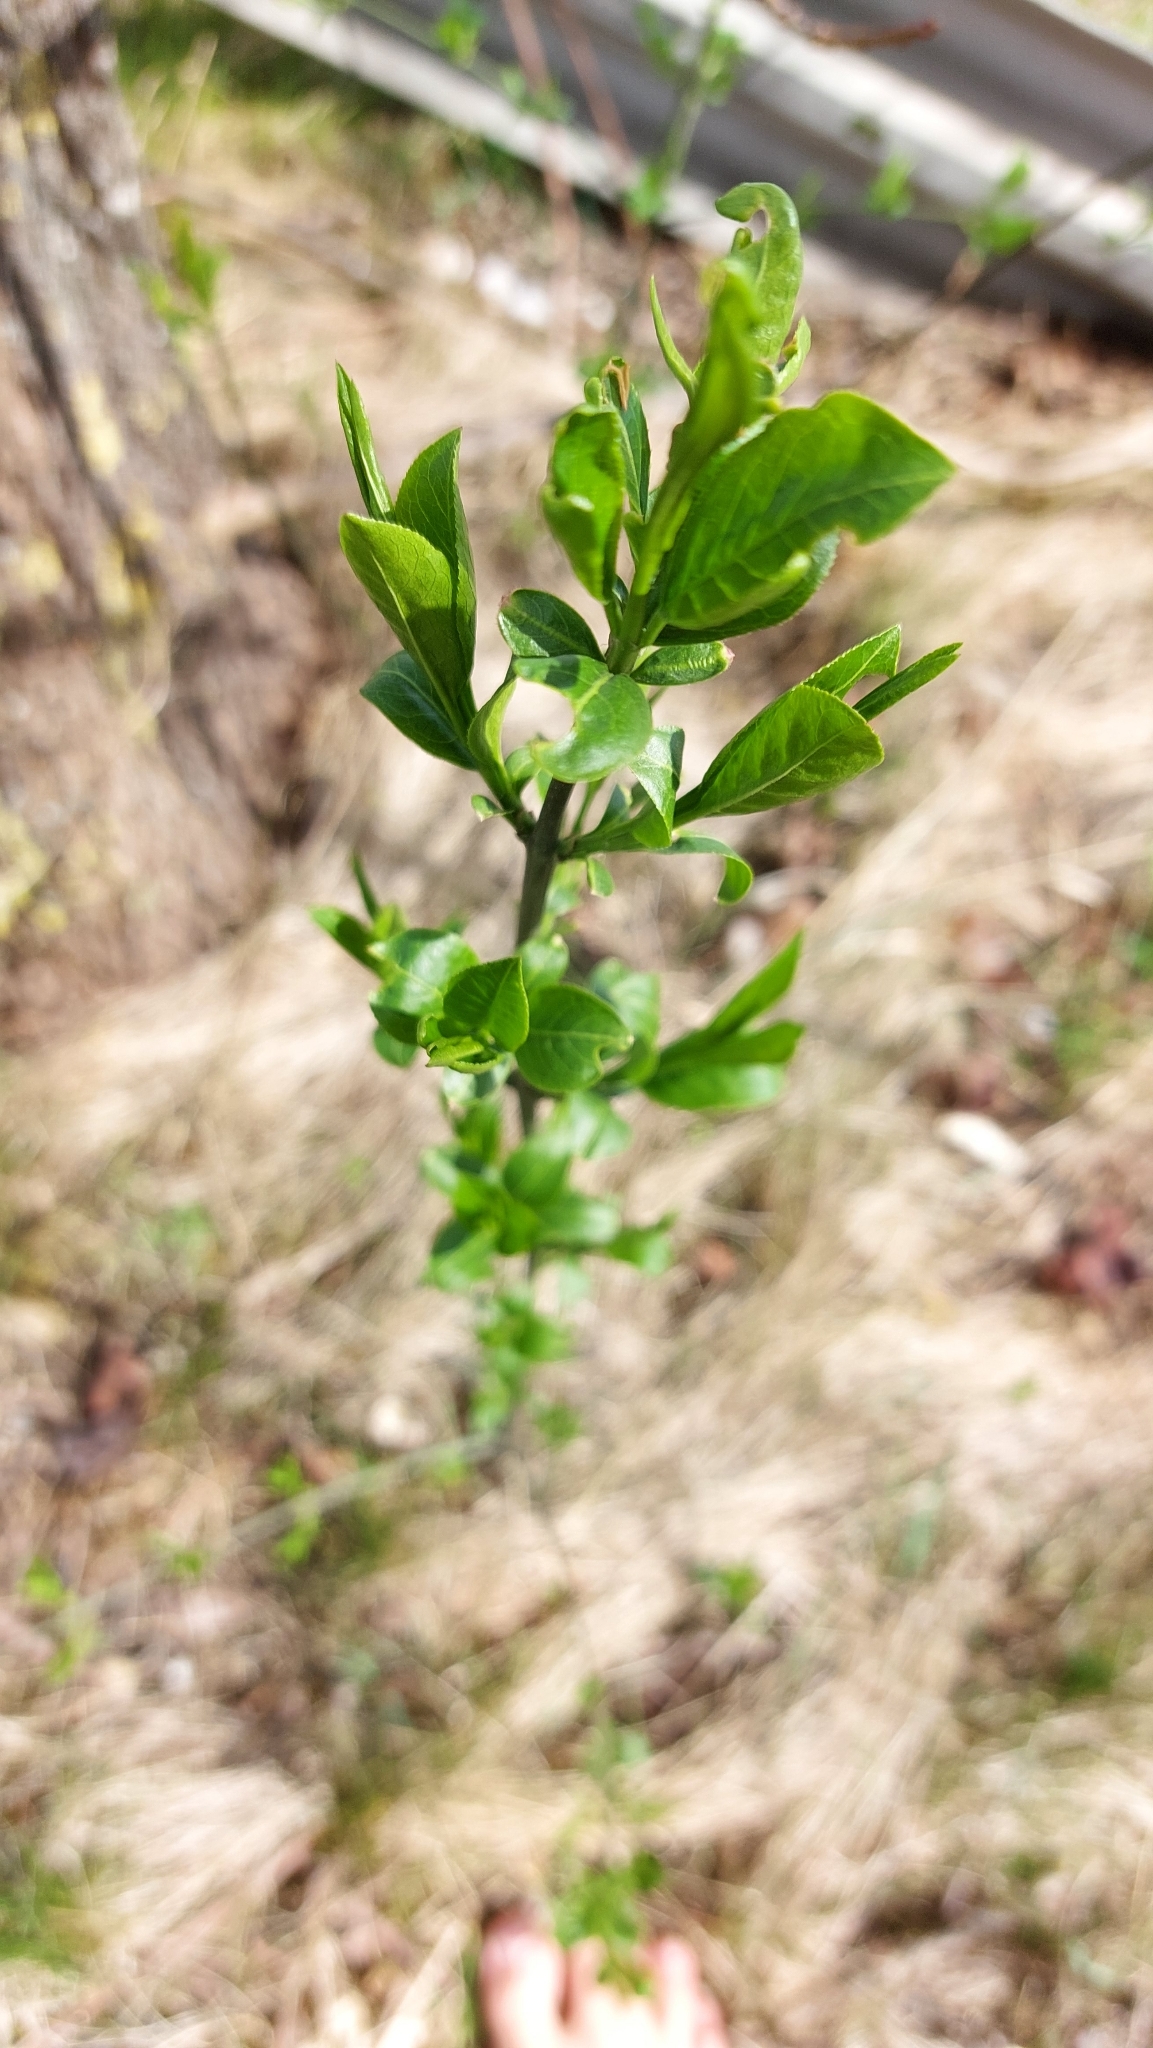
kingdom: Plantae
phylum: Tracheophyta
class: Magnoliopsida
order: Celastrales
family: Celastraceae
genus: Euonymus
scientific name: Euonymus europaeus
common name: Spindle
